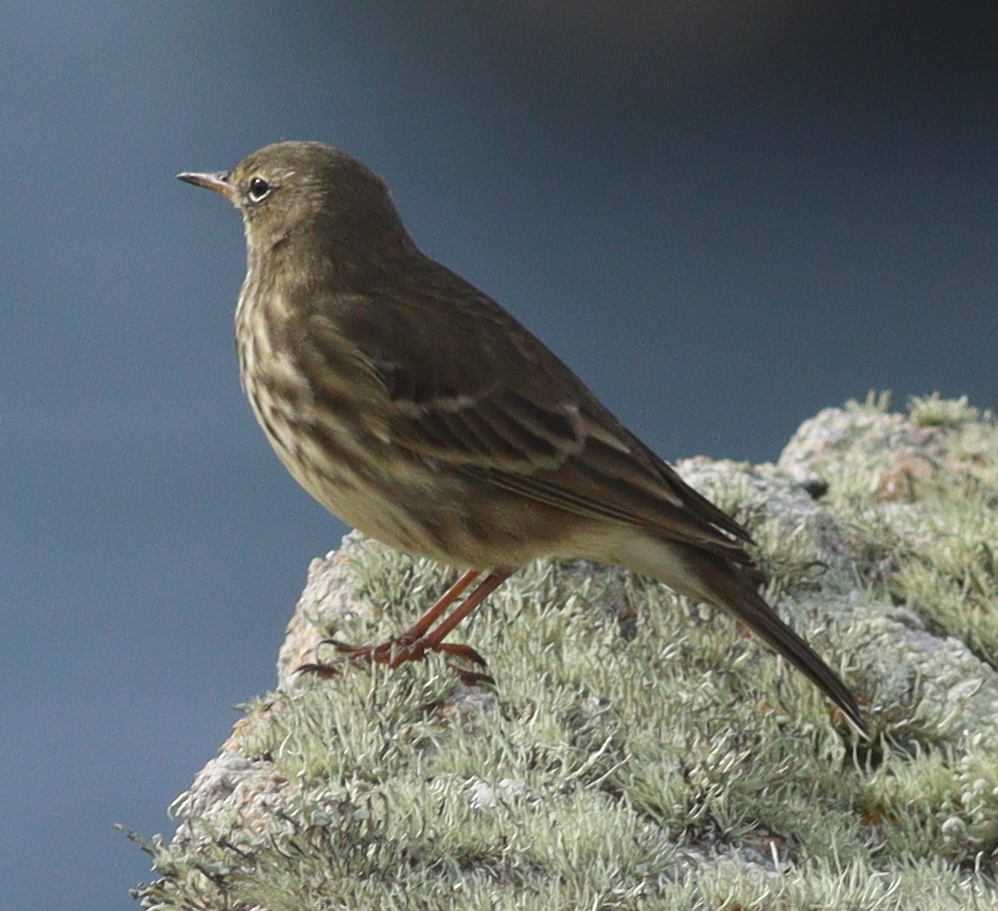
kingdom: Animalia
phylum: Chordata
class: Aves
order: Passeriformes
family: Motacillidae
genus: Anthus
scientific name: Anthus petrosus
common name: Eurasian rock pipit
